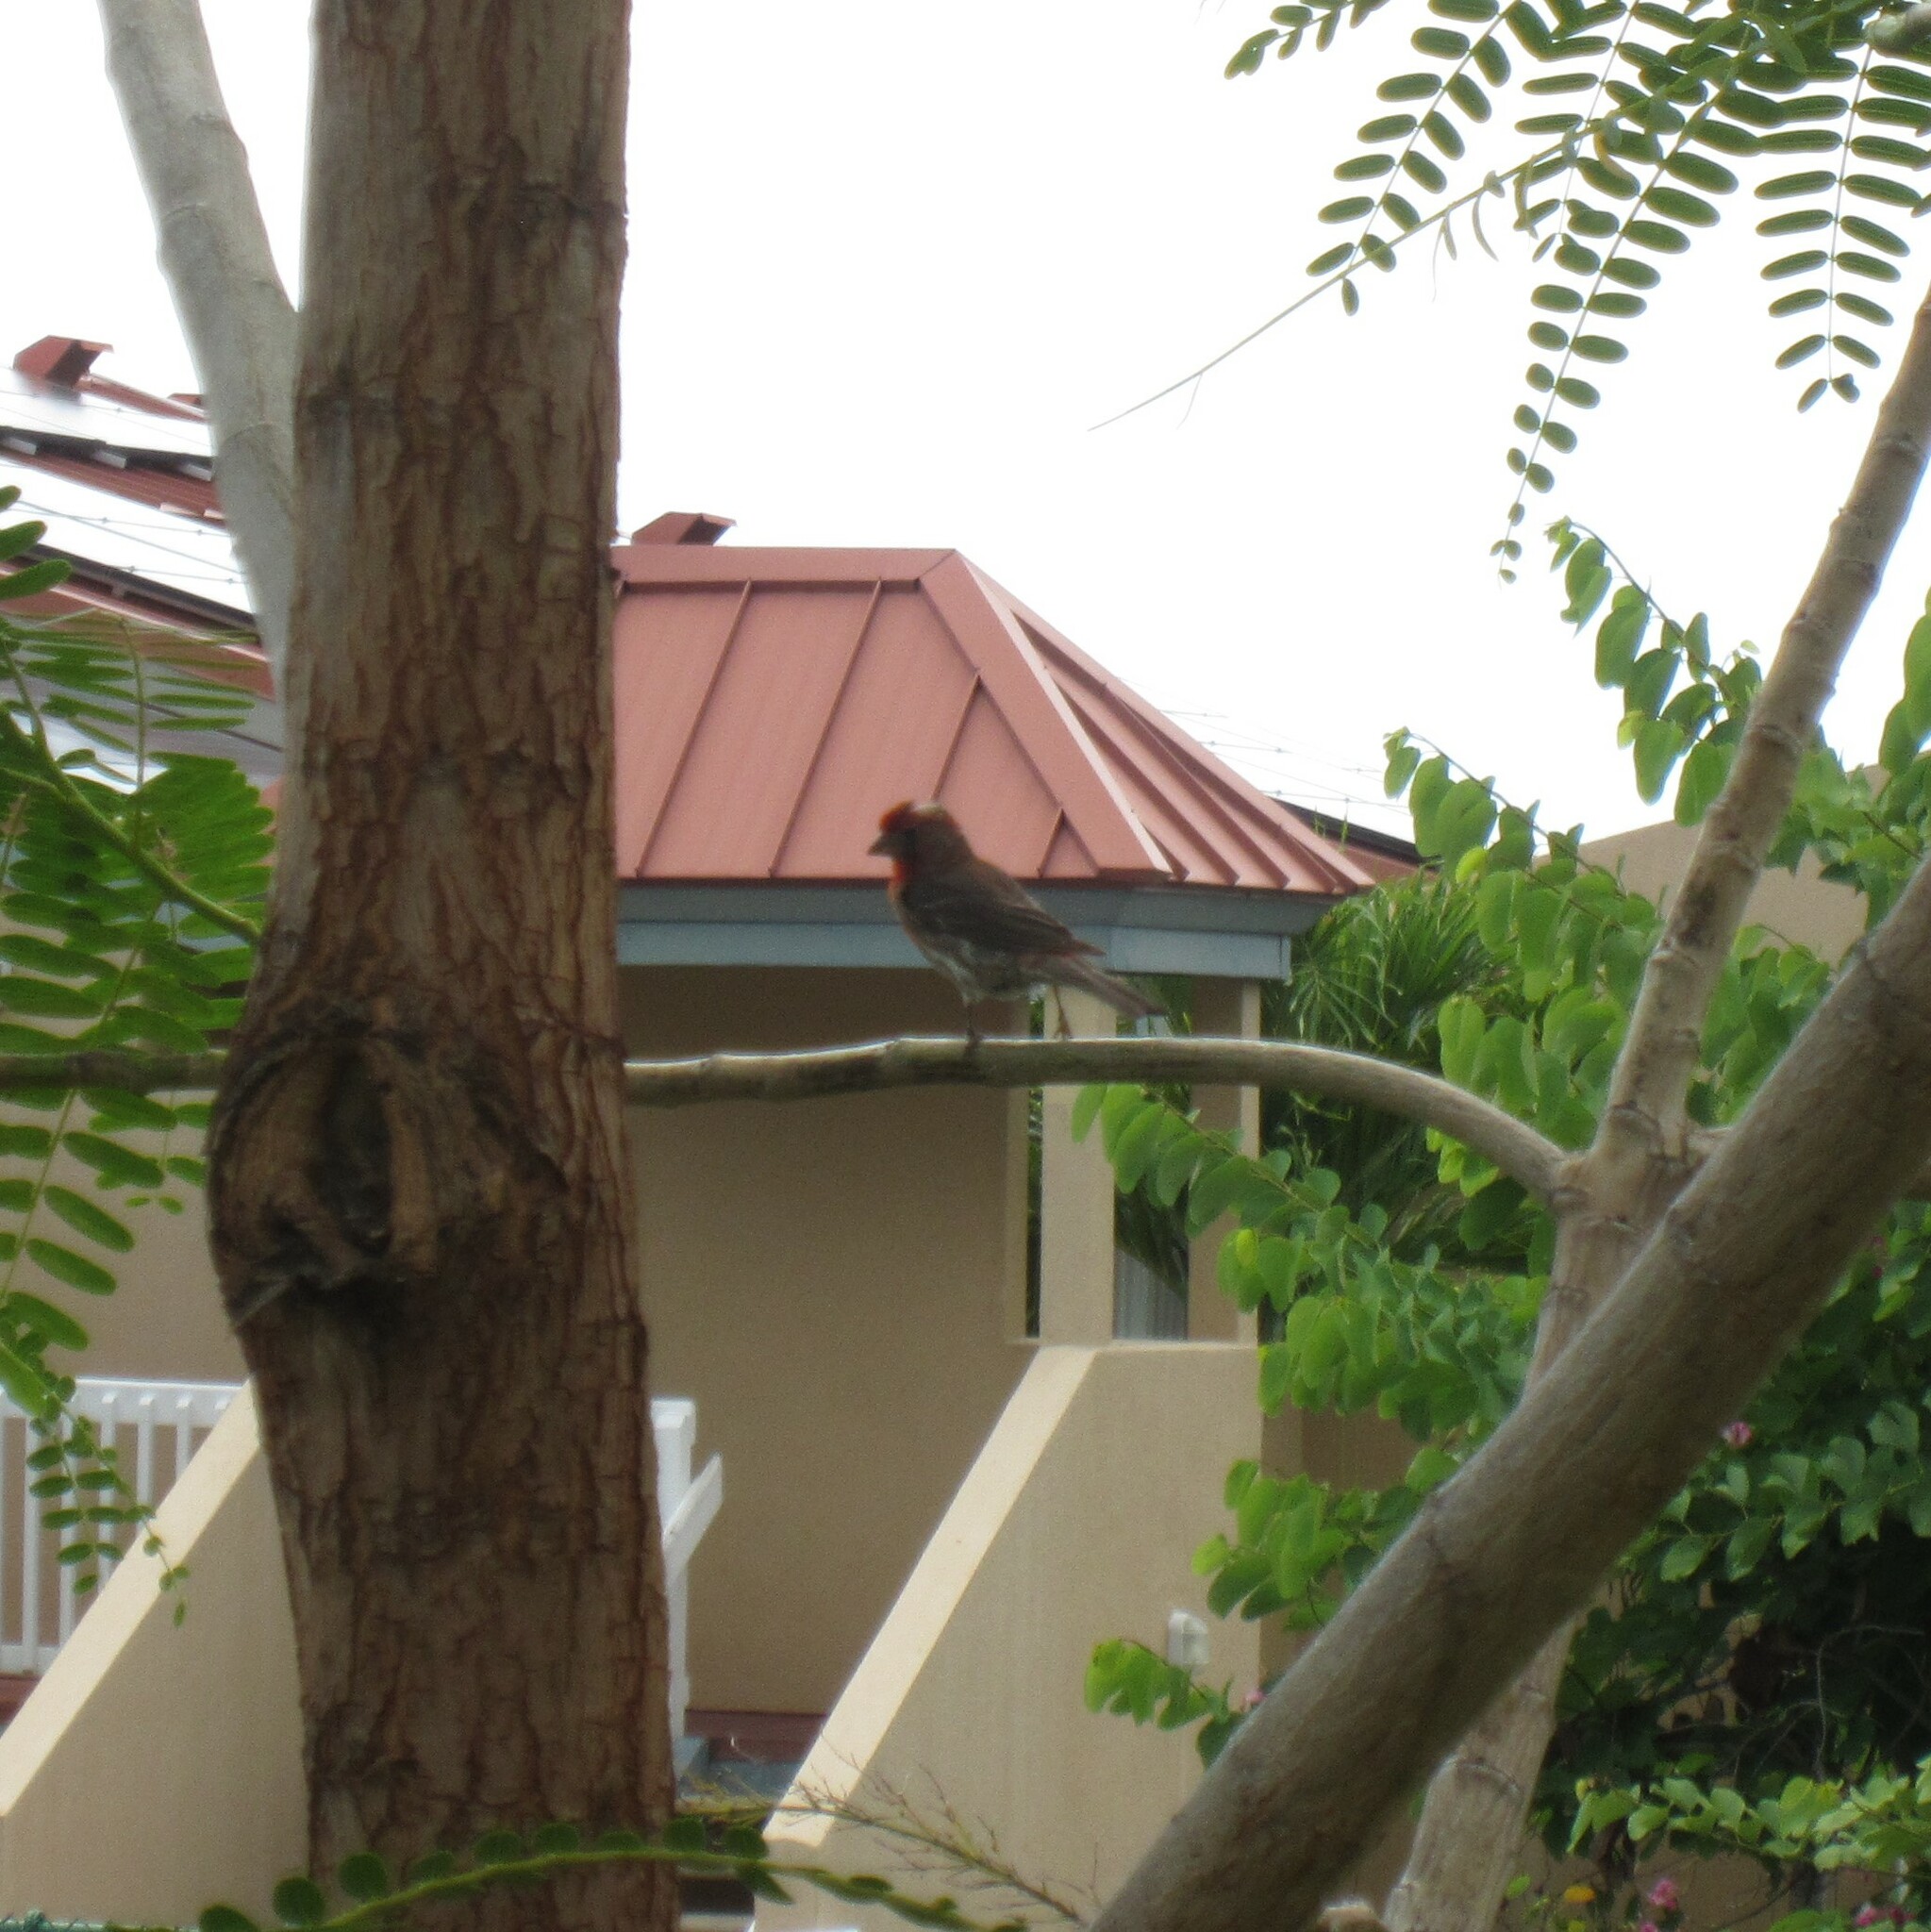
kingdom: Animalia
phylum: Chordata
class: Aves
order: Passeriformes
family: Fringillidae
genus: Haemorhous
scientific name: Haemorhous mexicanus
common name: House finch
